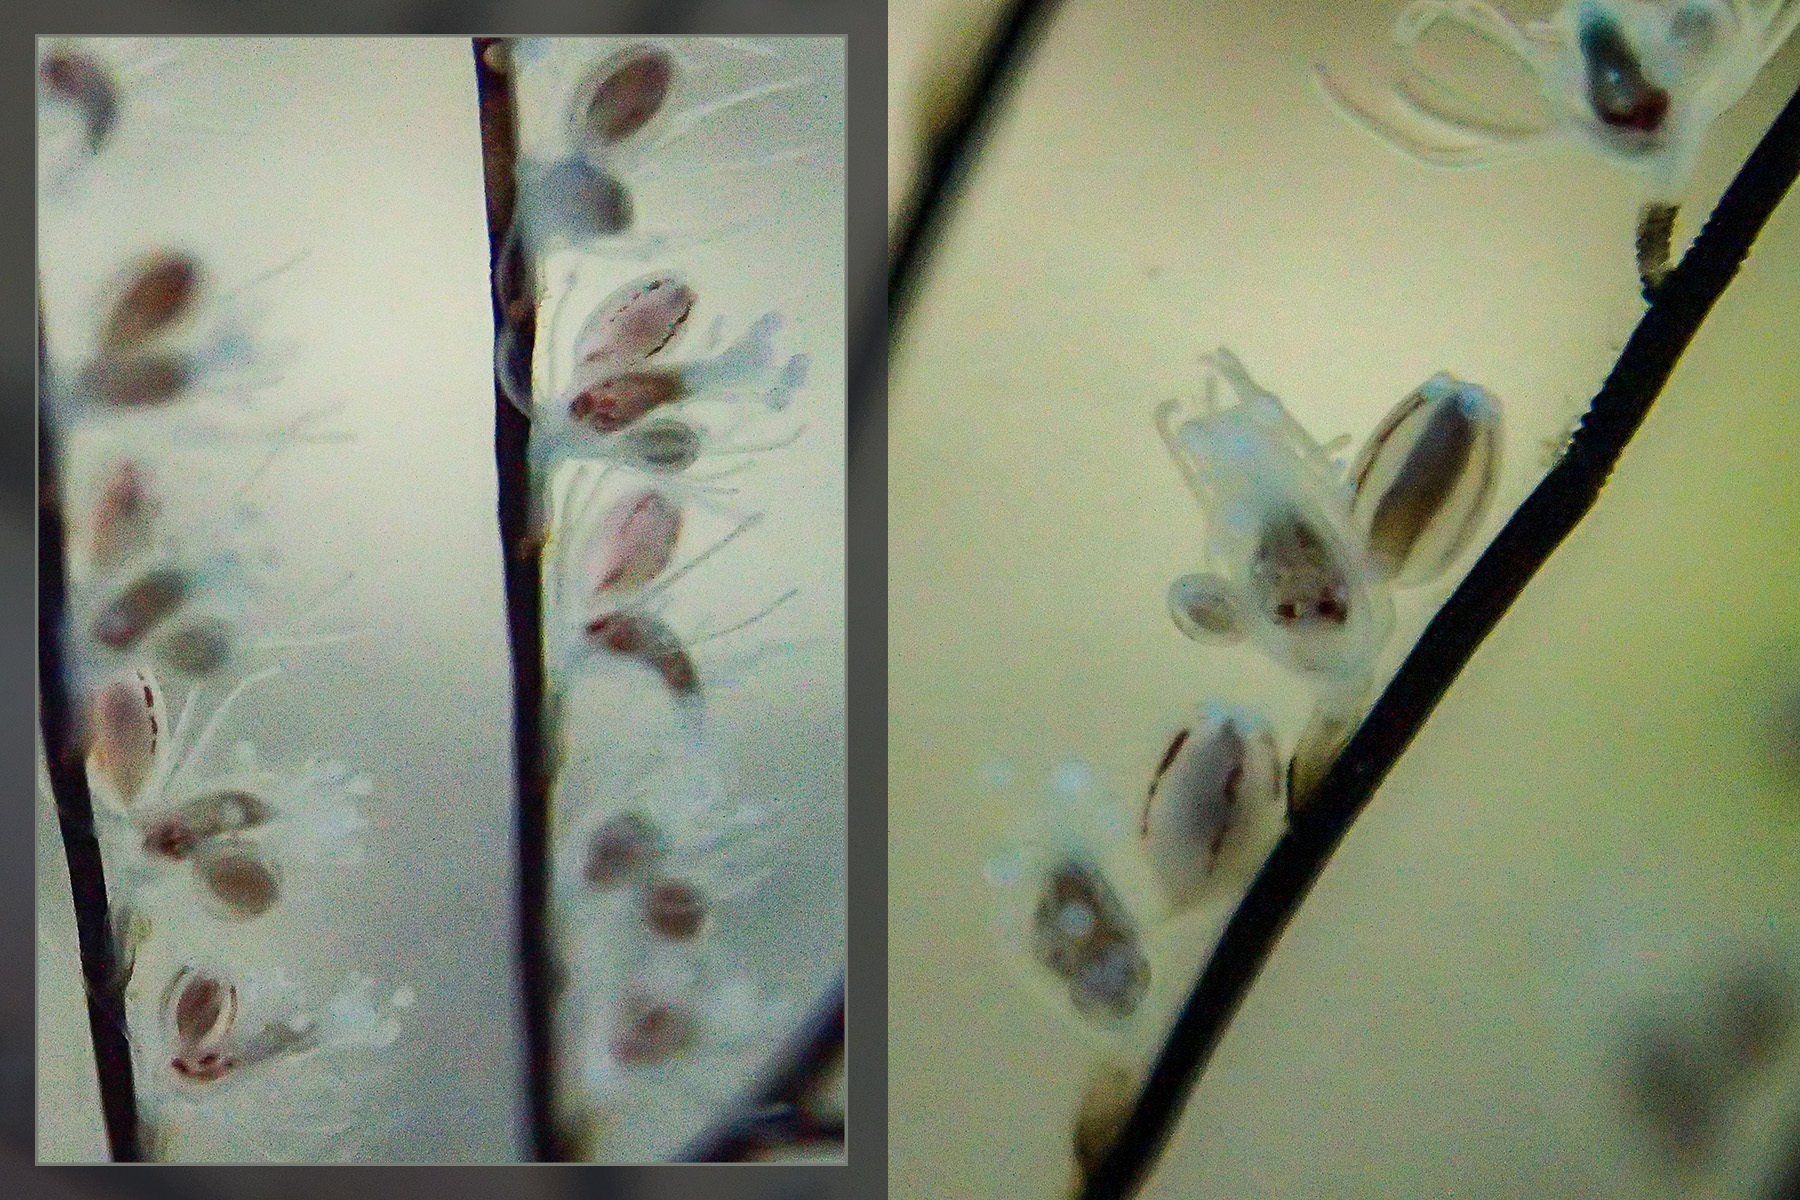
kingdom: Animalia
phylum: Cnidaria
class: Hydrozoa
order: Anthoathecata
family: Pennariidae
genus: Pennaria
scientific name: Pennaria disticha
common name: Feather hydroid
